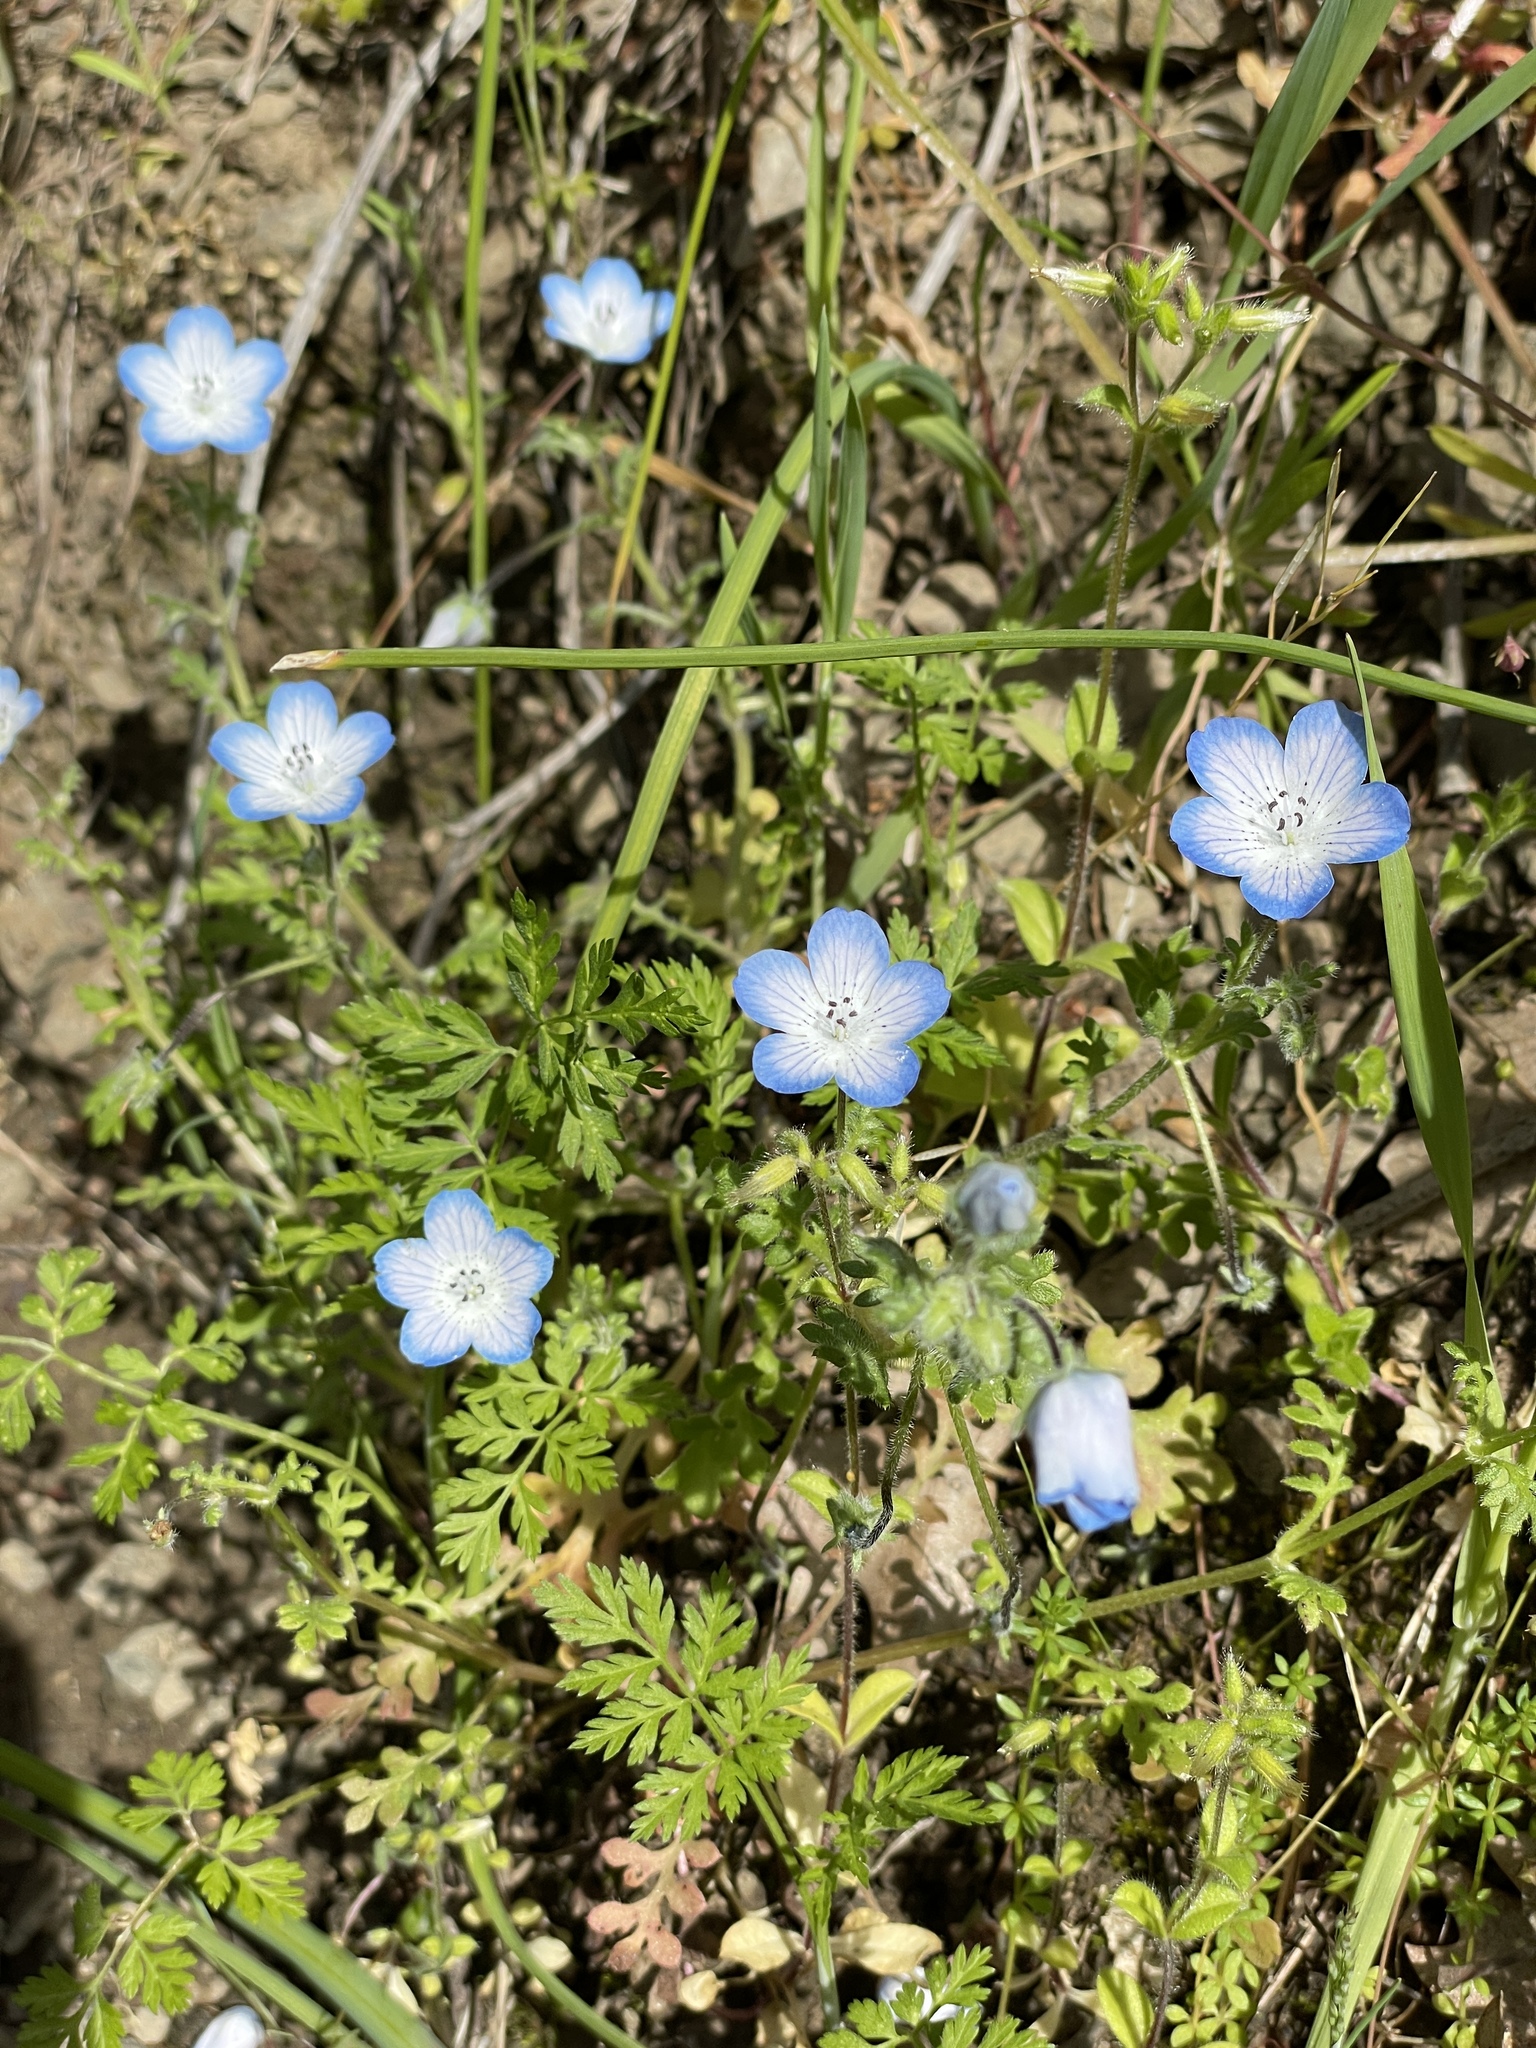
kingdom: Plantae
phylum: Tracheophyta
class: Magnoliopsida
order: Boraginales
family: Hydrophyllaceae
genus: Nemophila
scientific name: Nemophila menziesii
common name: Baby's-blue-eyes
